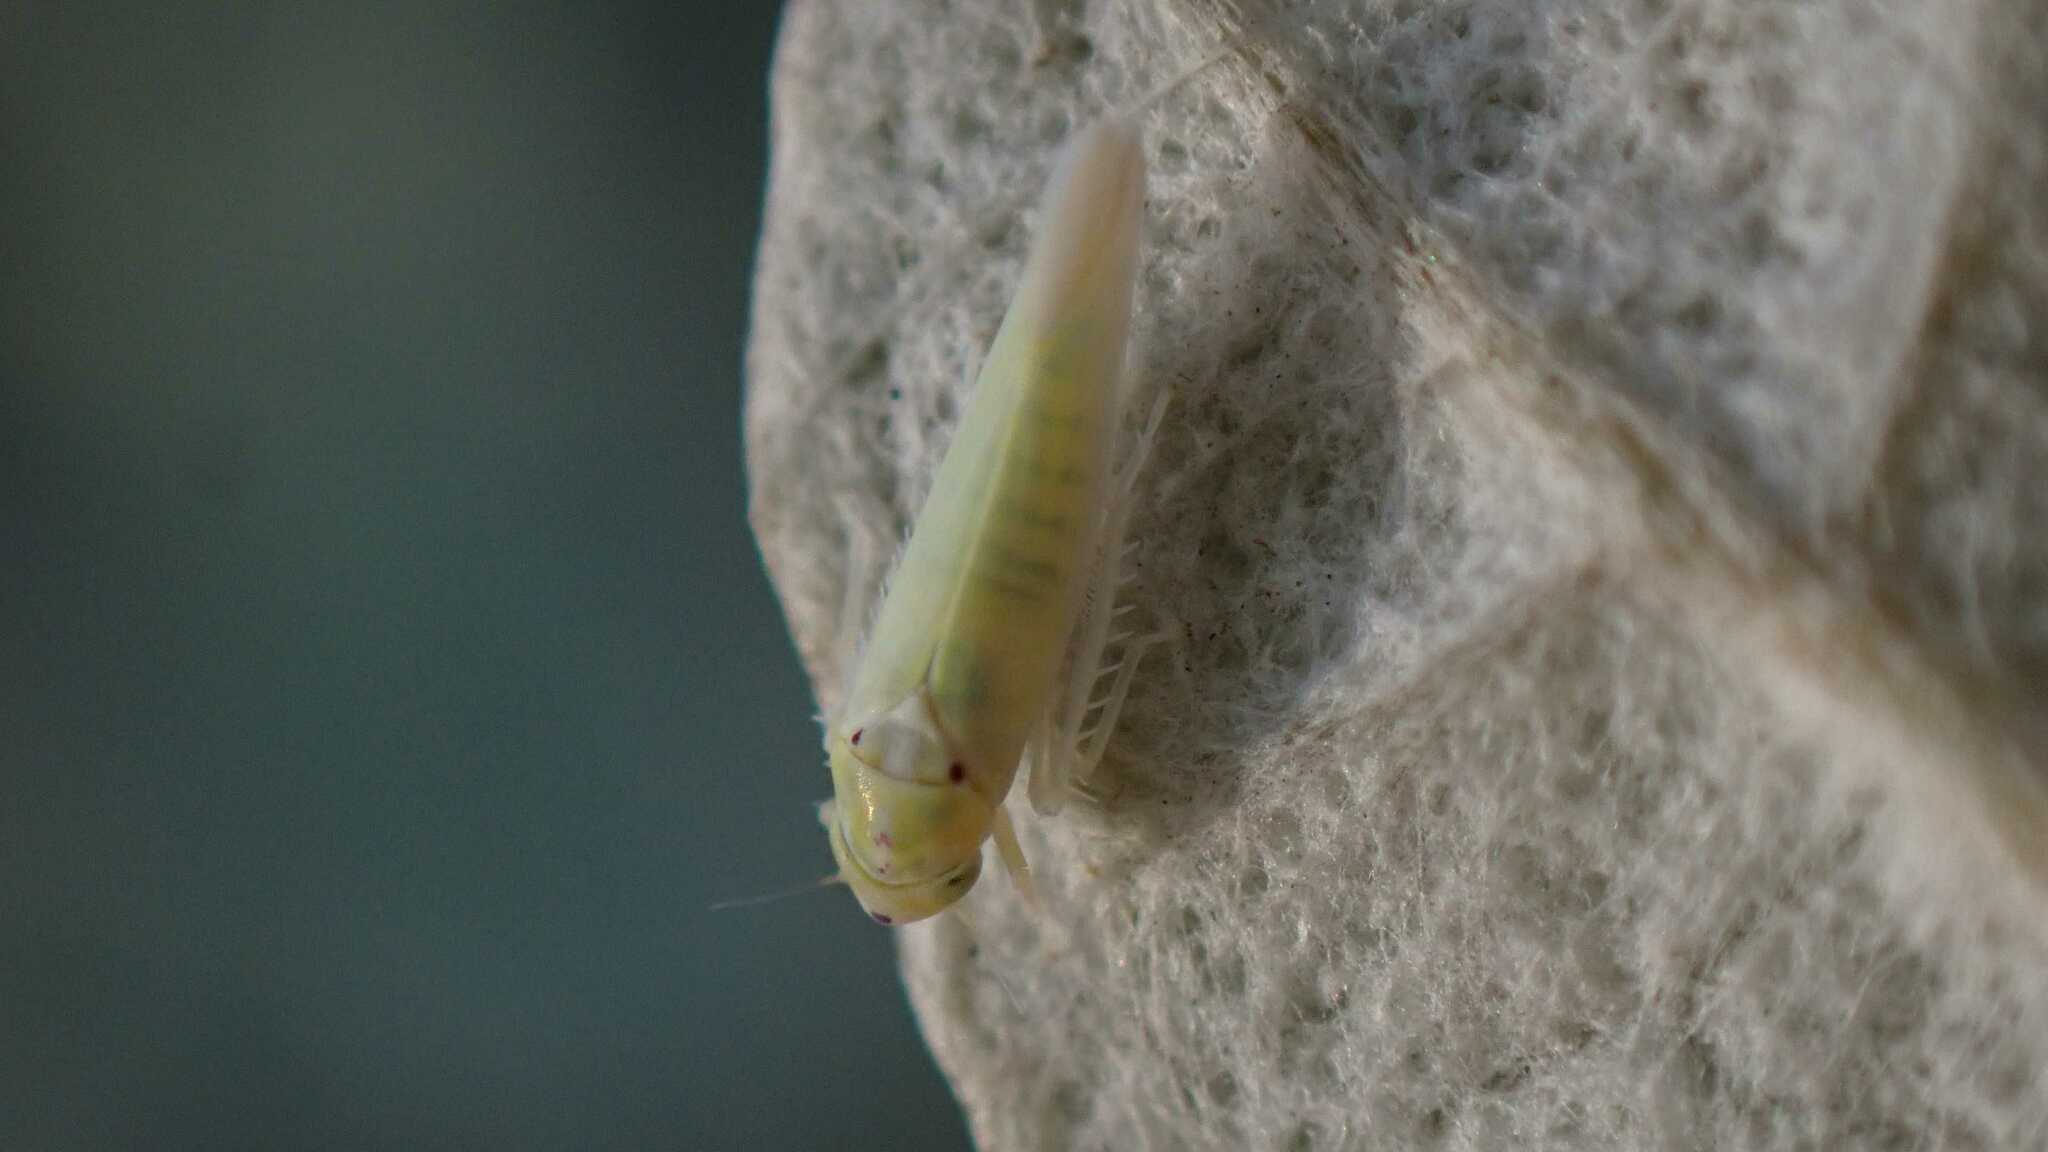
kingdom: Animalia
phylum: Arthropoda
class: Insecta
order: Hemiptera
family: Cicadellidae
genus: Zygina
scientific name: Zygina nivea
